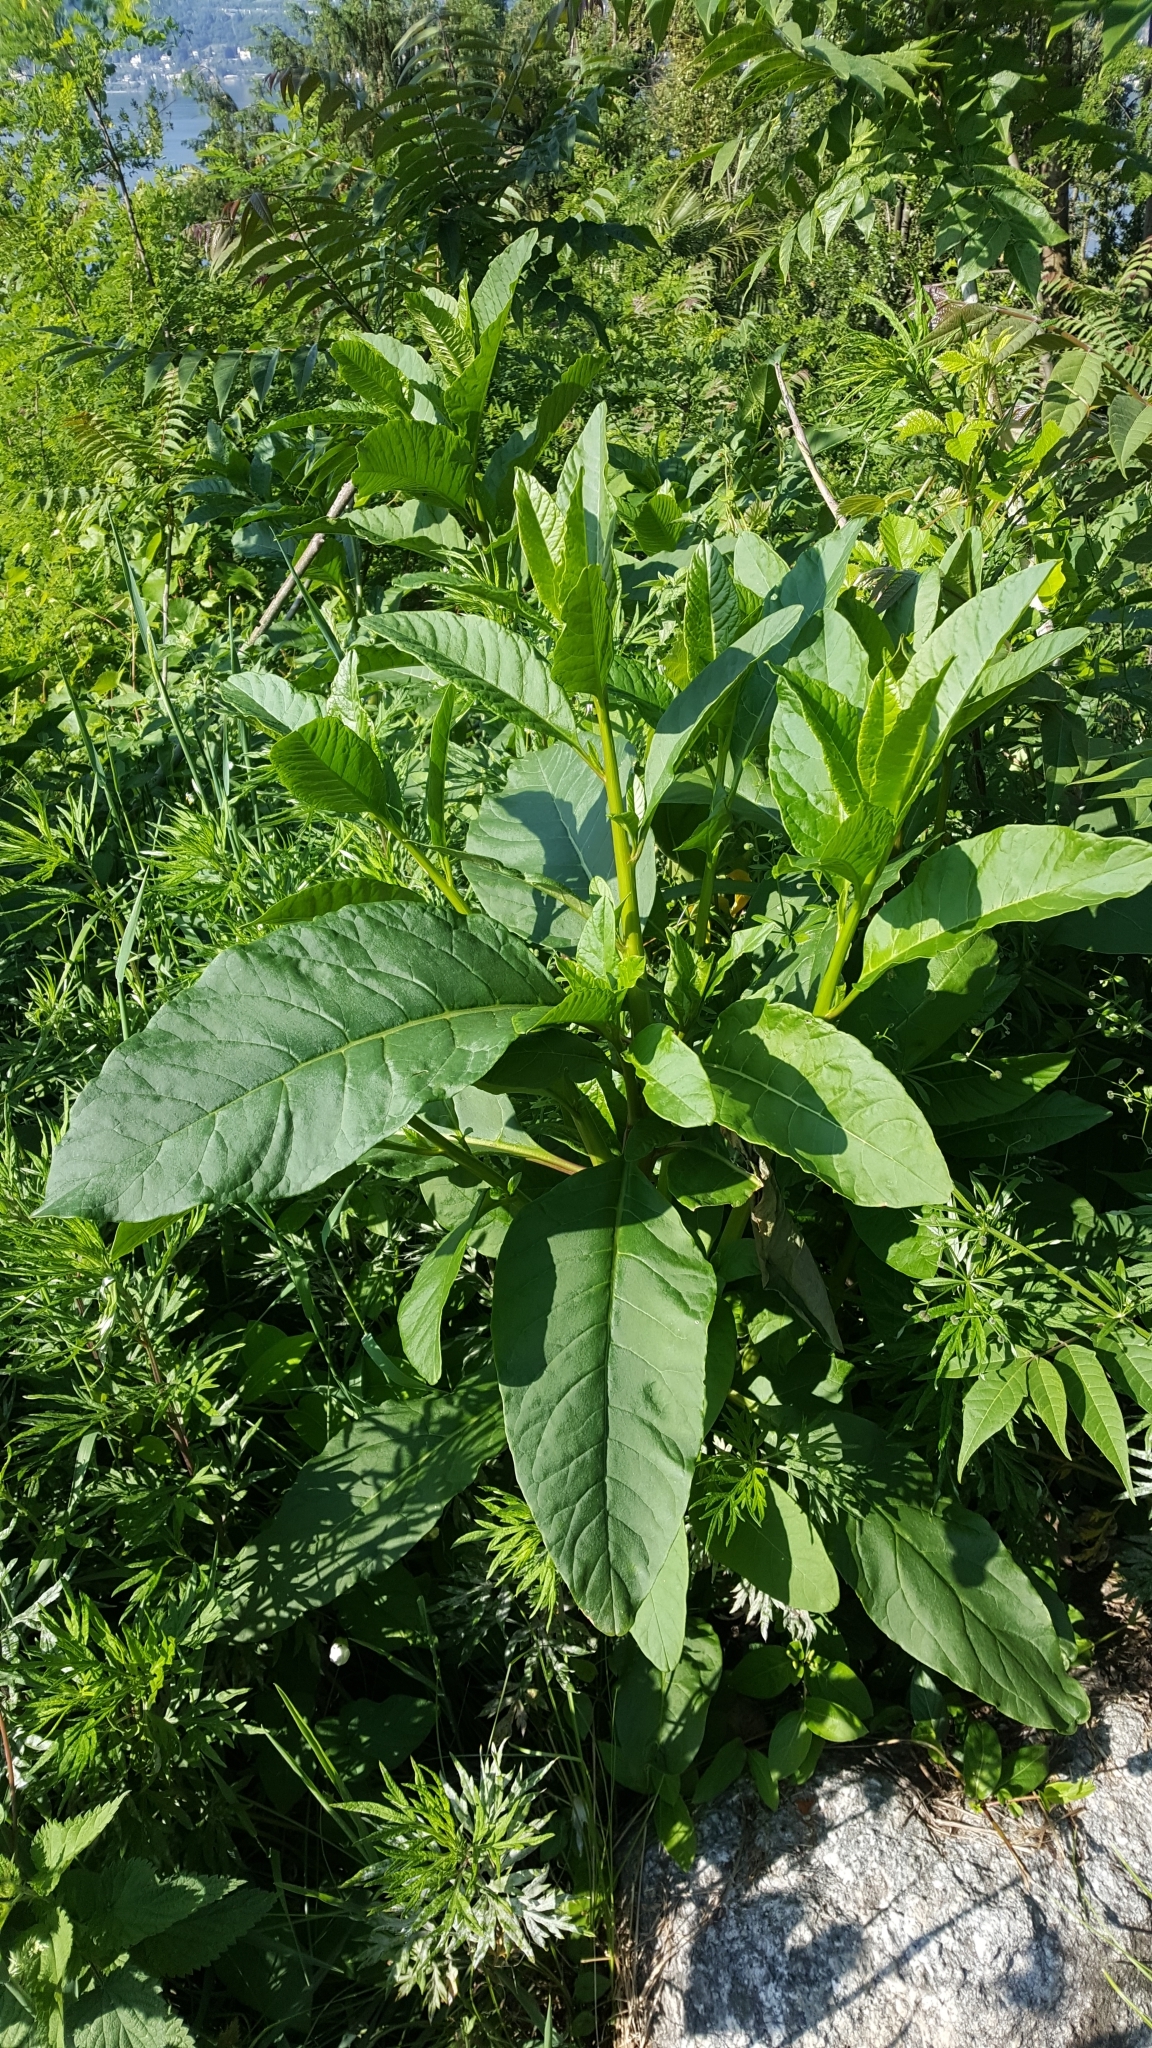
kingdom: Plantae
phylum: Tracheophyta
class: Magnoliopsida
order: Caryophyllales
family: Phytolaccaceae
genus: Phytolacca
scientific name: Phytolacca americana
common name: American pokeweed
